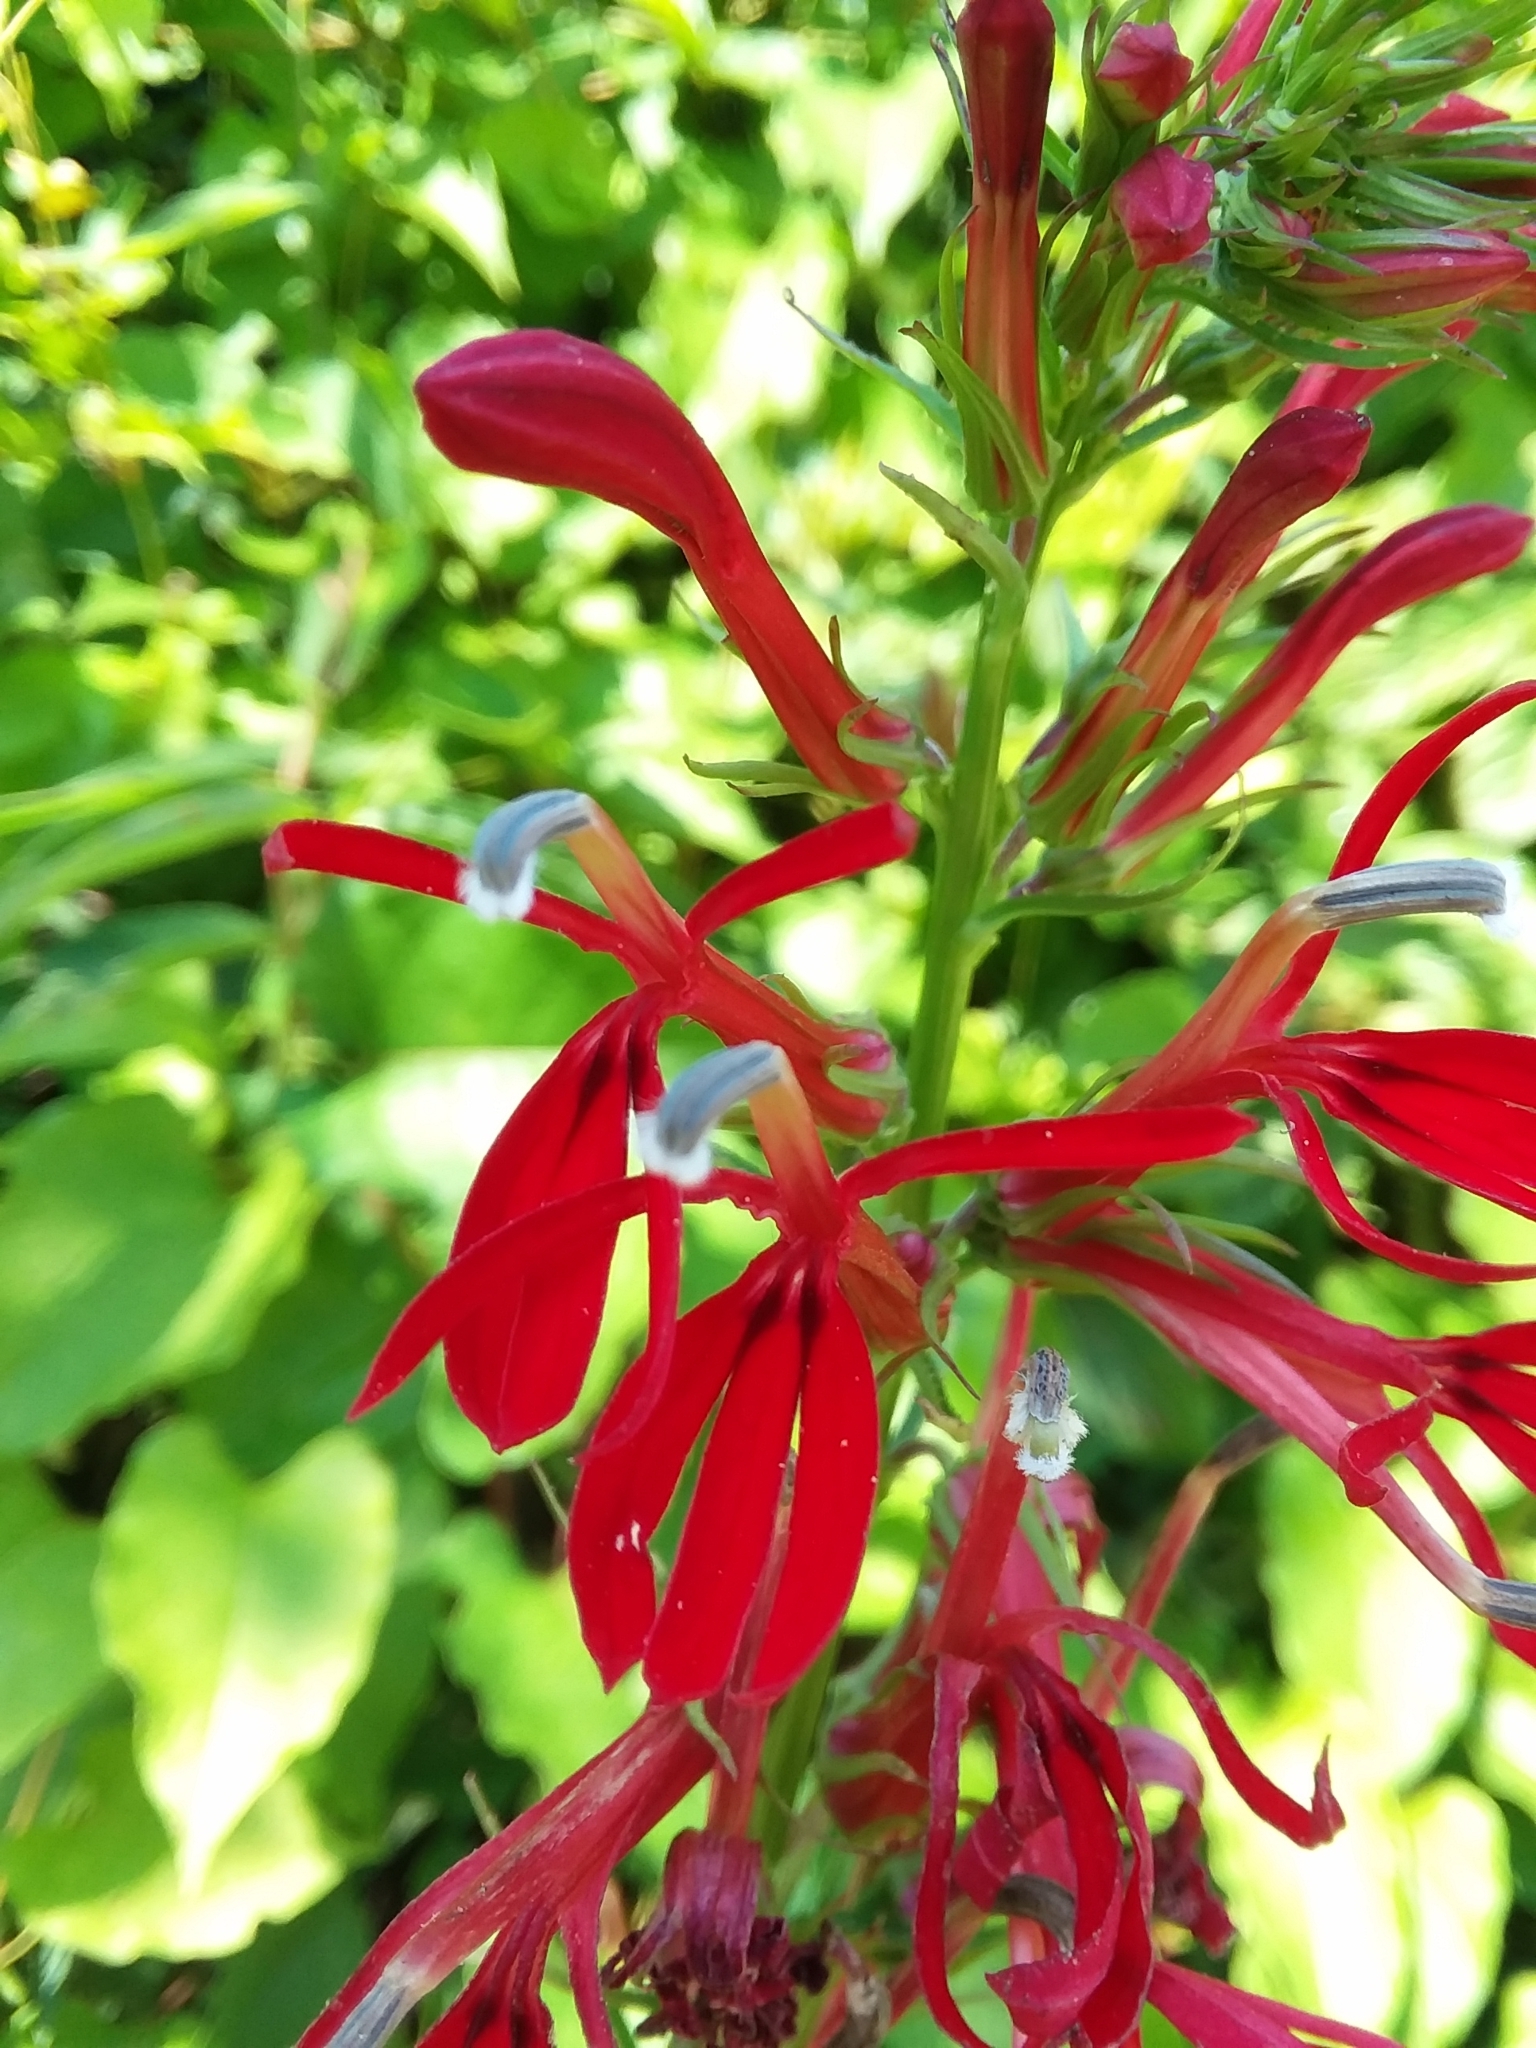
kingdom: Plantae
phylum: Tracheophyta
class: Magnoliopsida
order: Asterales
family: Campanulaceae
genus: Lobelia
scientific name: Lobelia cardinalis
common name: Cardinal flower
